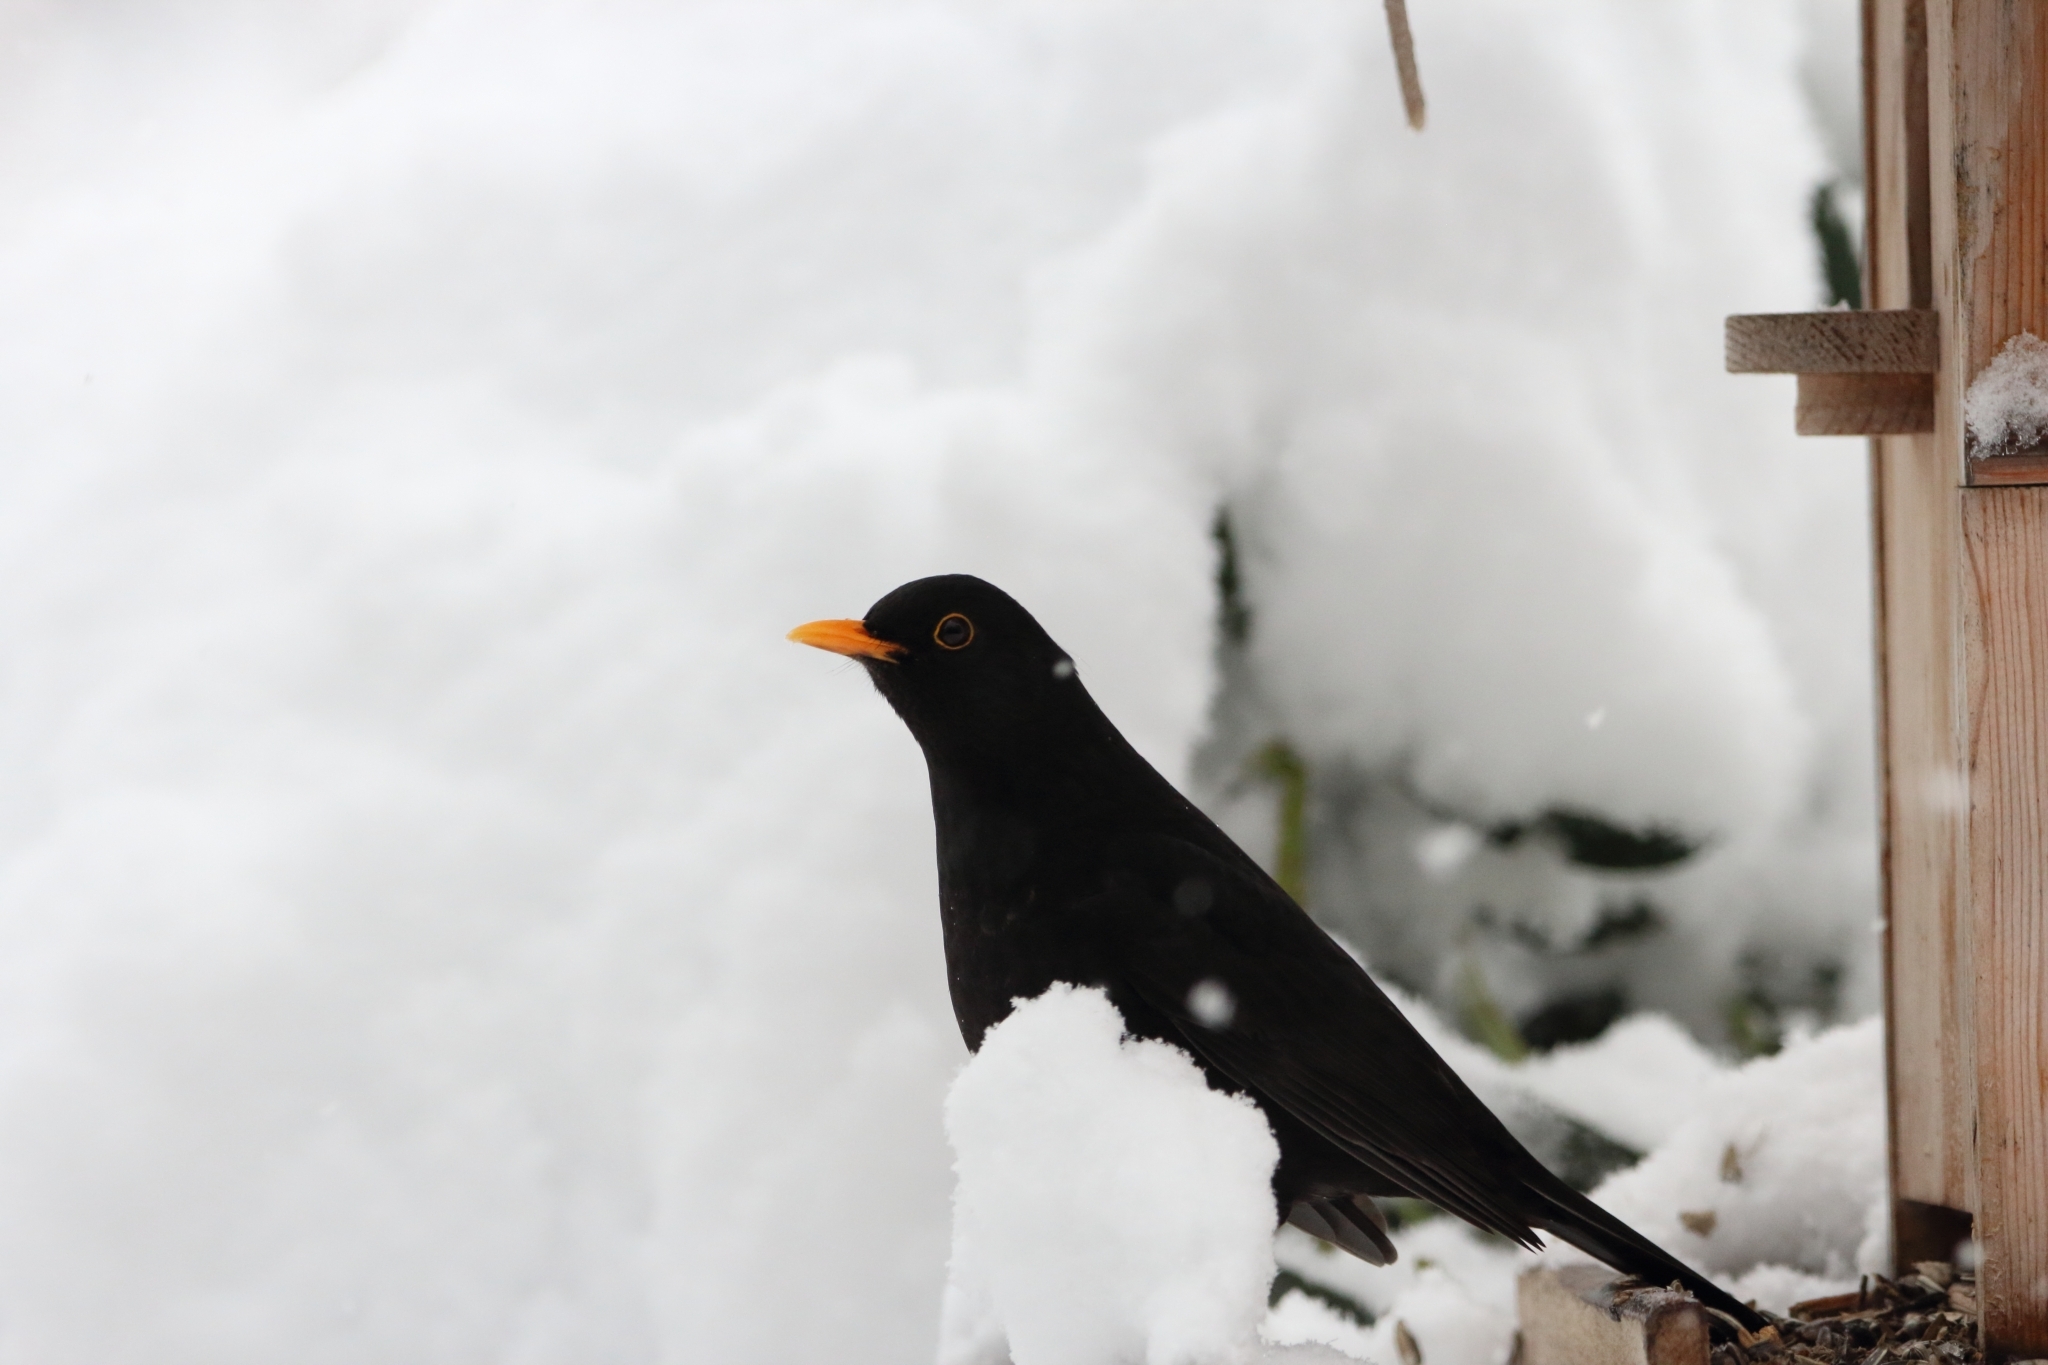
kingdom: Animalia
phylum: Chordata
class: Aves
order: Passeriformes
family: Turdidae
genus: Turdus
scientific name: Turdus merula
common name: Common blackbird
